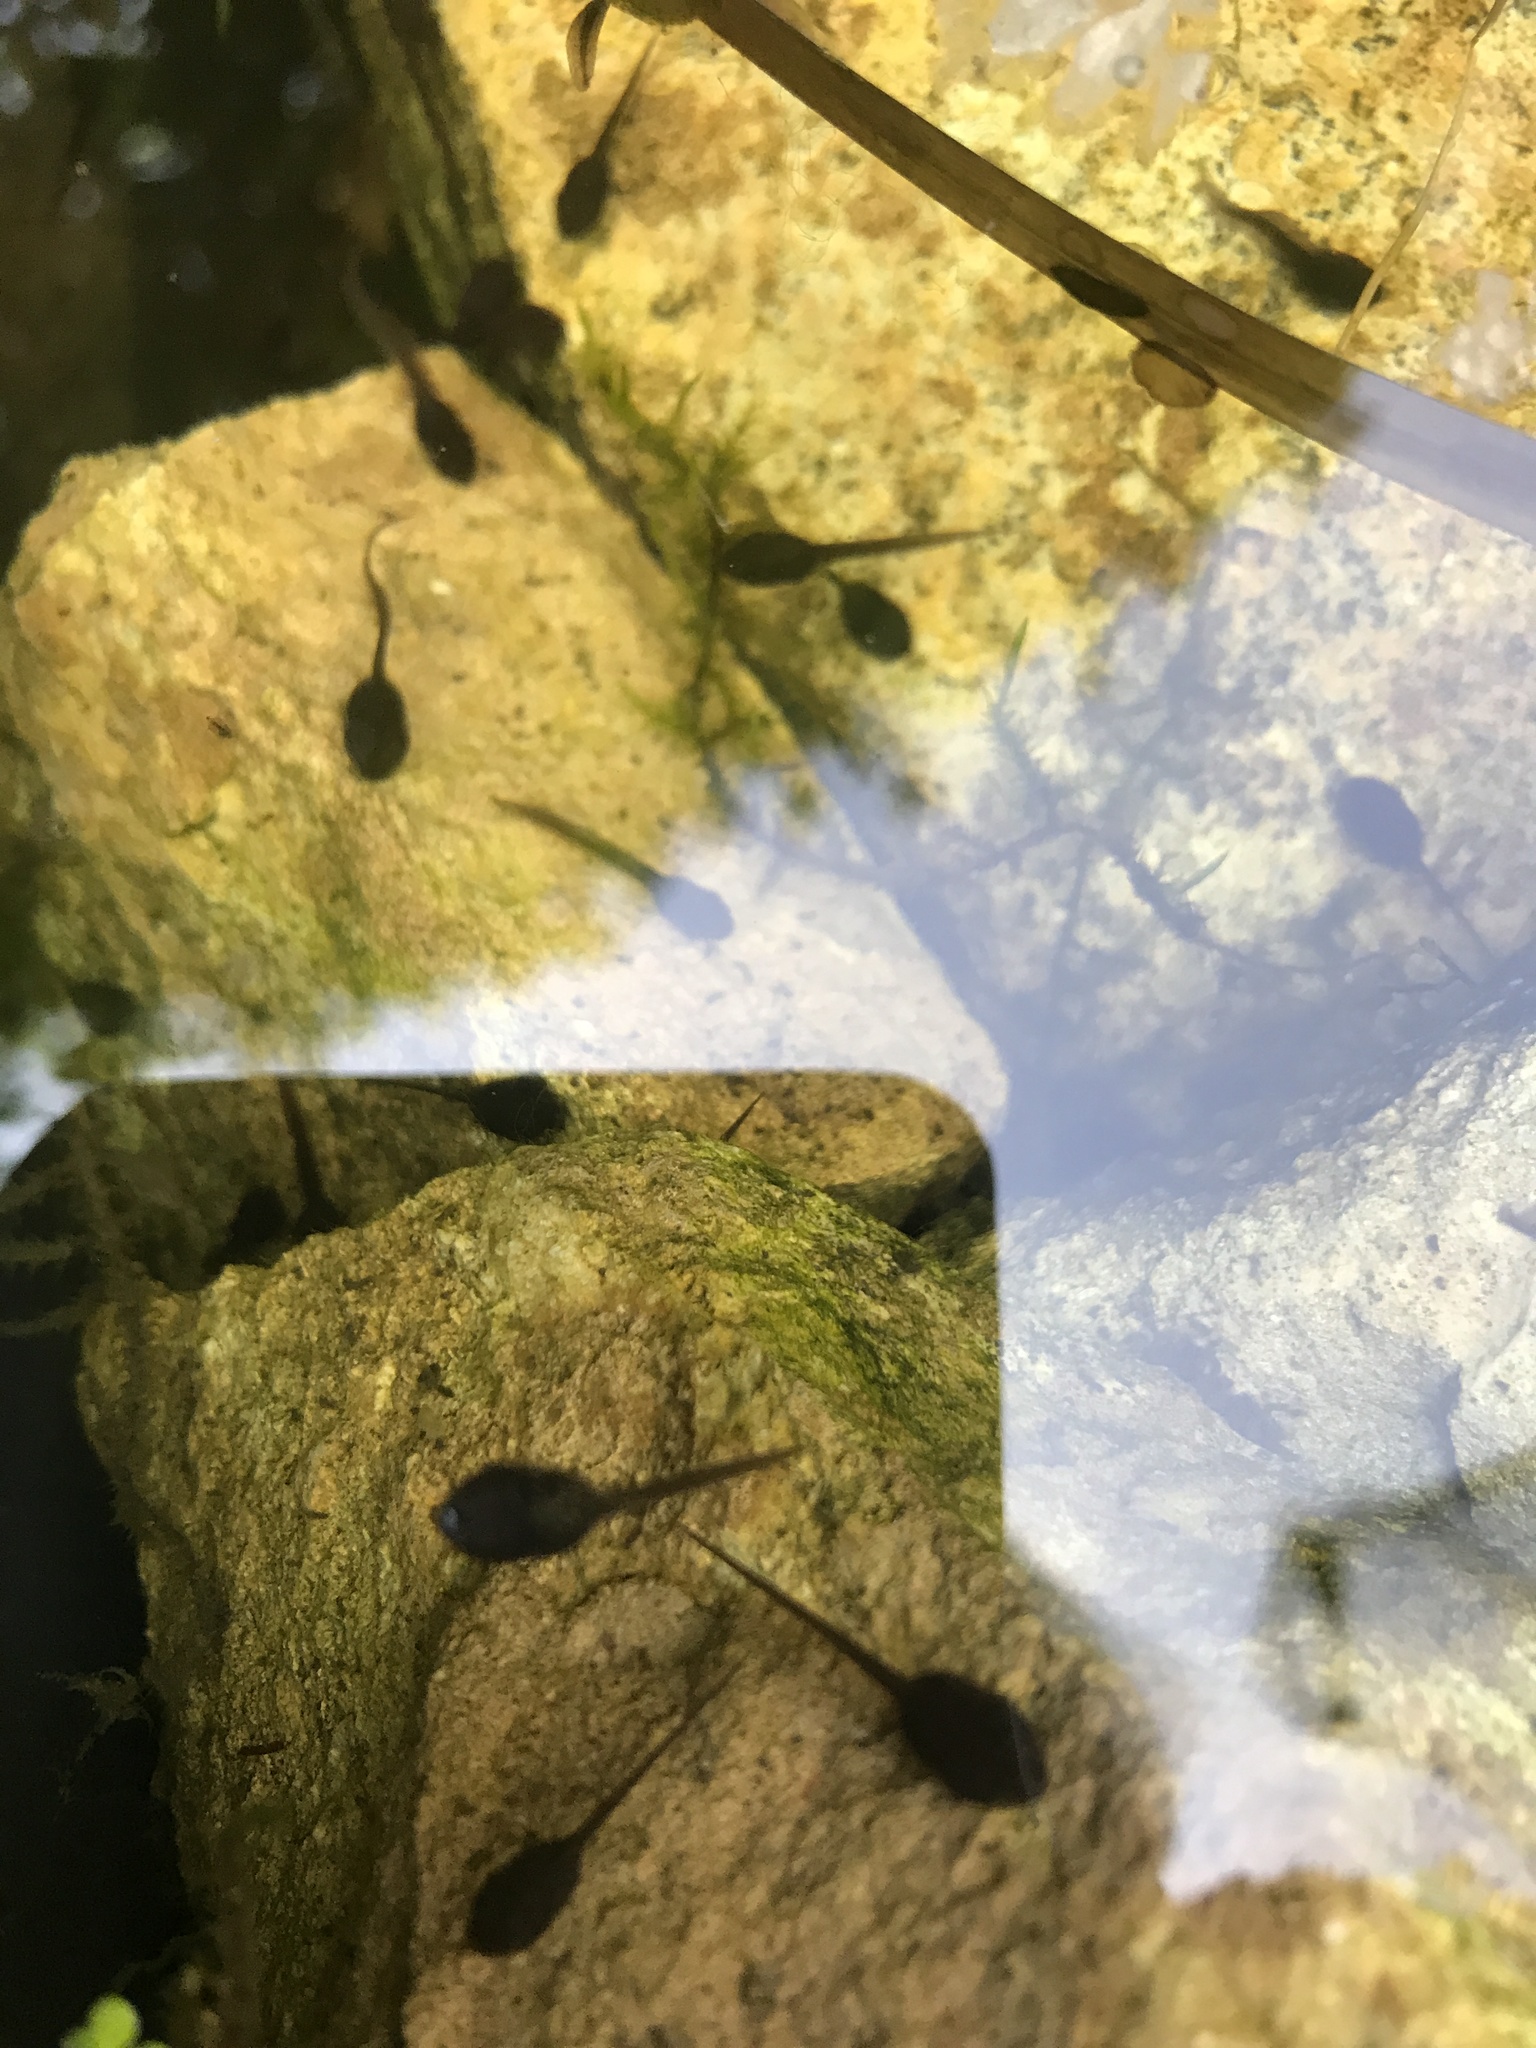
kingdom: Animalia
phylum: Chordata
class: Amphibia
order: Anura
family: Ranidae
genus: Rana
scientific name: Rana temporaria
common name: Common frog
